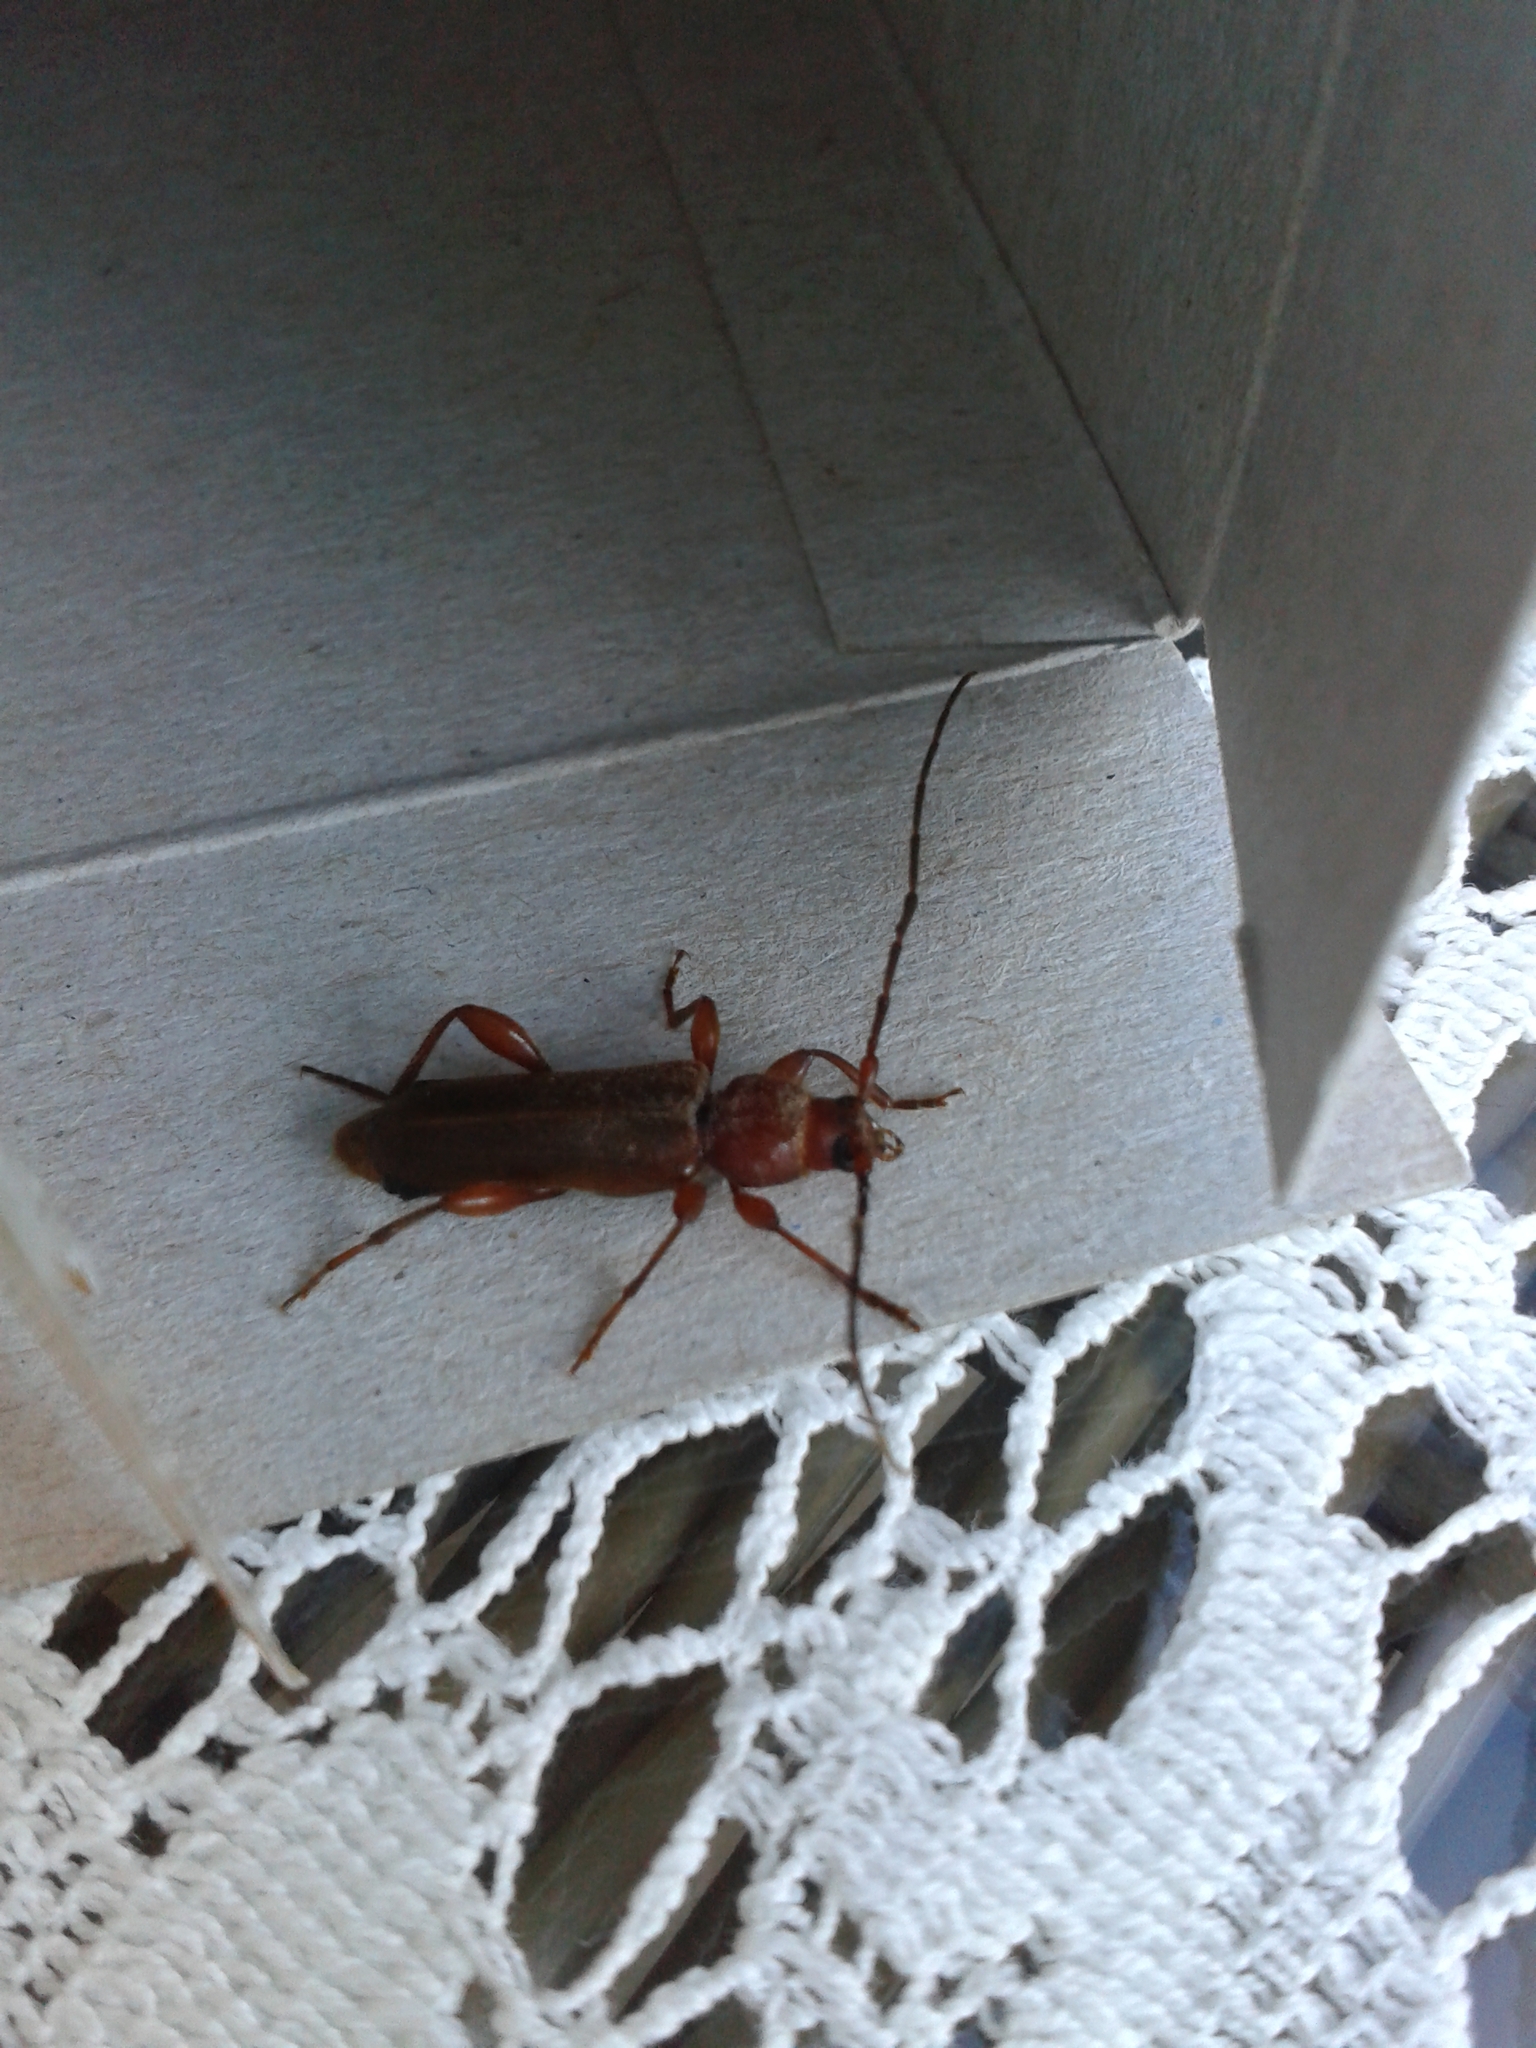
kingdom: Animalia
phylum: Arthropoda
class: Insecta
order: Coleoptera
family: Cerambycidae
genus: Phymatodes
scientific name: Phymatodes testaceus
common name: Long-horned beetle
